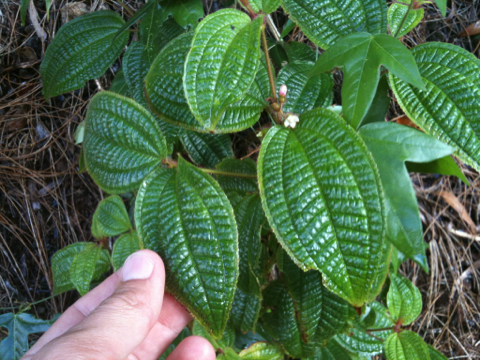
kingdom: Plantae
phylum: Tracheophyta
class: Magnoliopsida
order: Myrtales
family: Melastomataceae
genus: Miconia
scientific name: Miconia crenata
